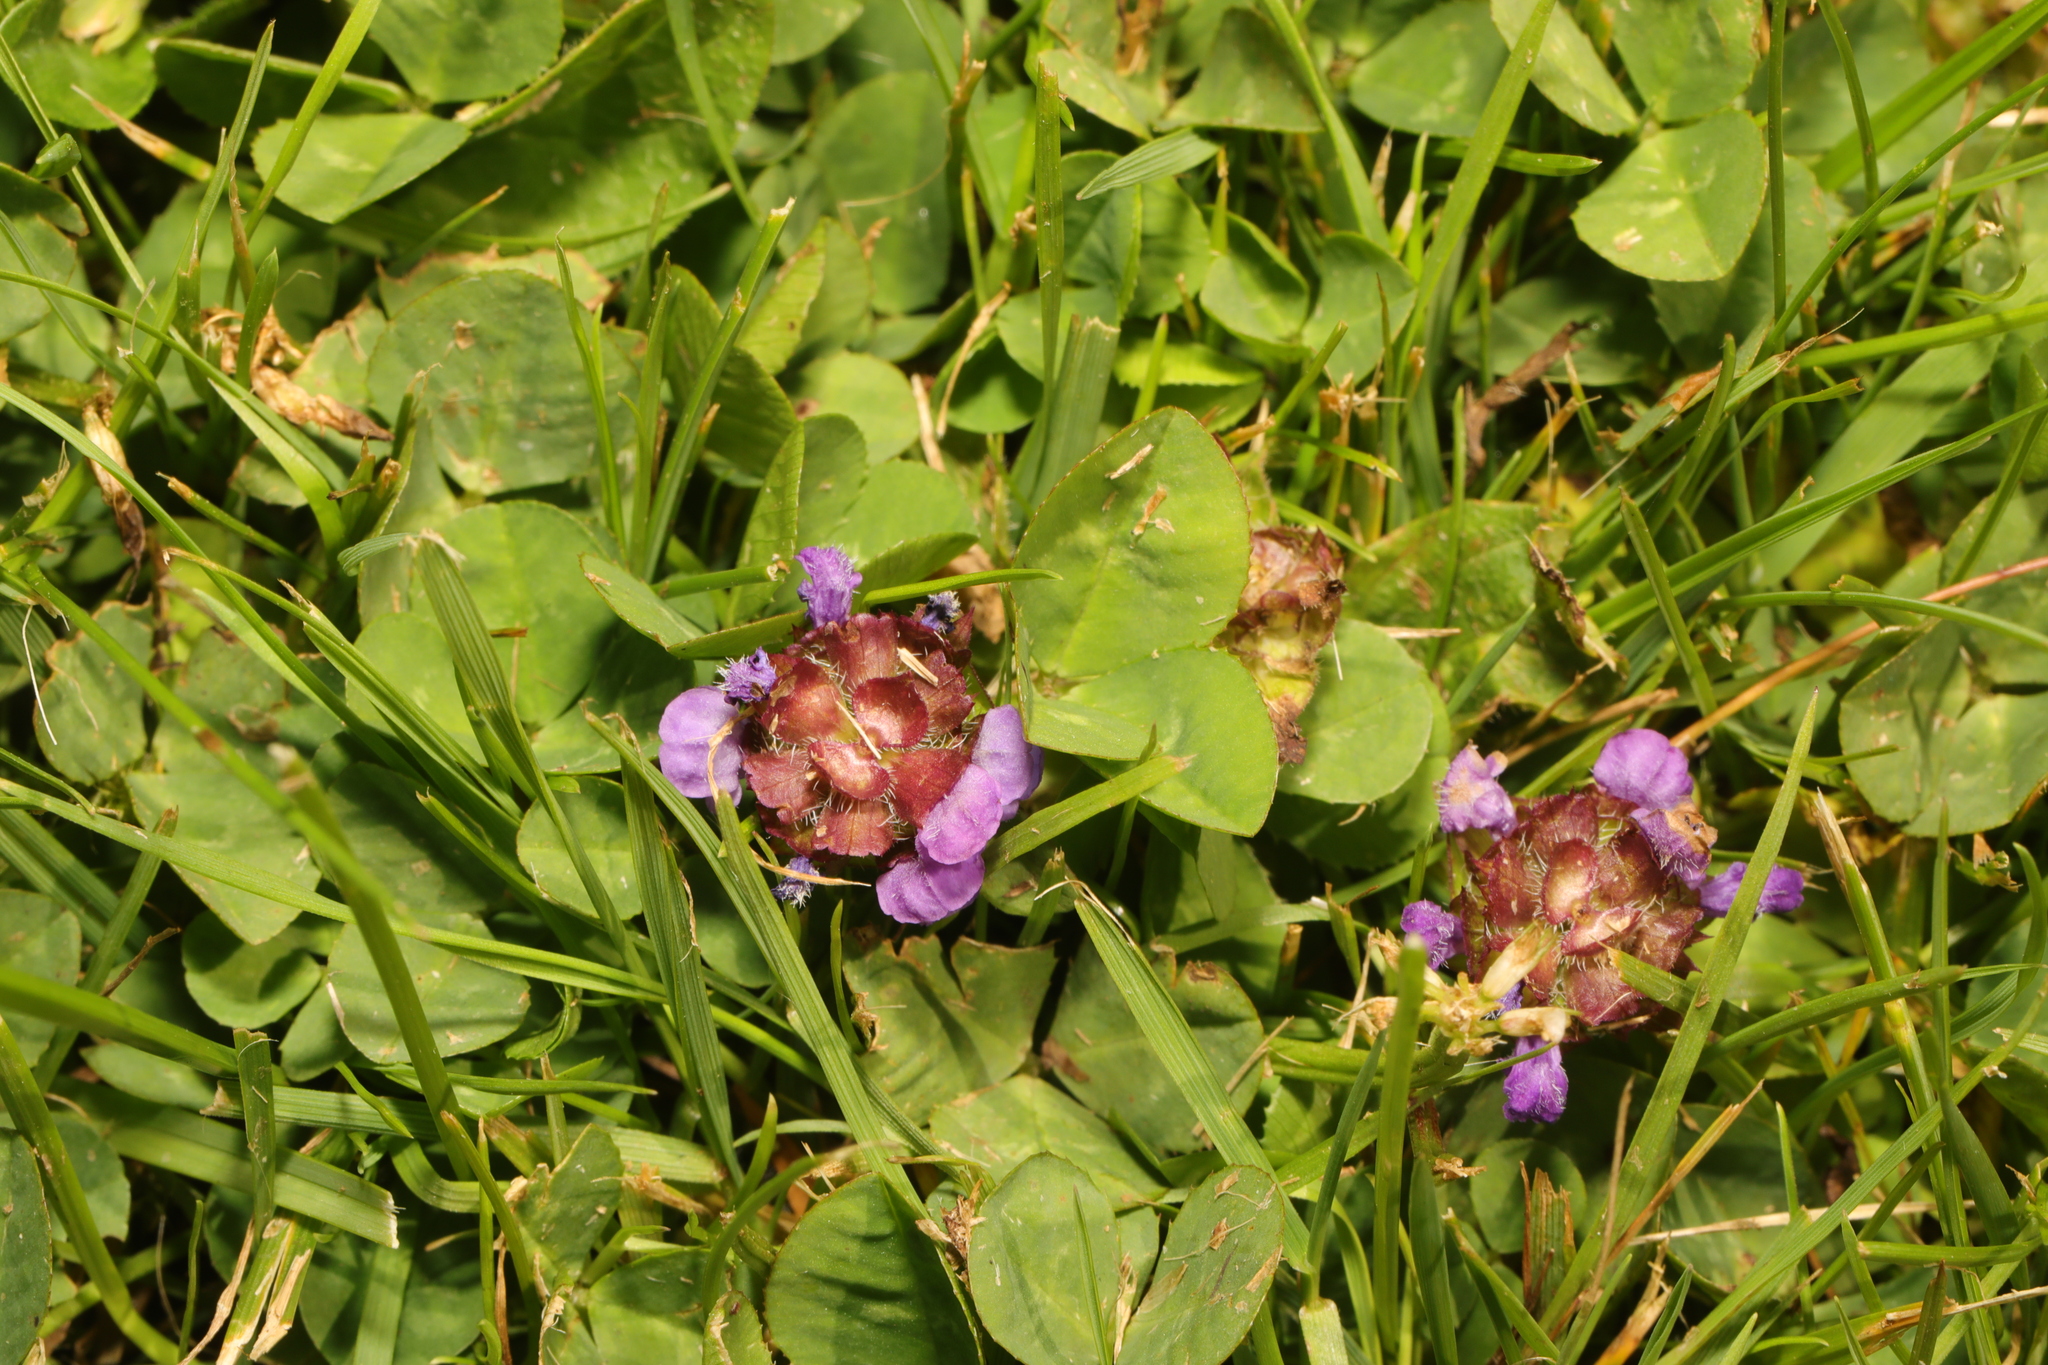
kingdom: Plantae
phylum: Tracheophyta
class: Magnoliopsida
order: Lamiales
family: Lamiaceae
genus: Prunella
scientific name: Prunella vulgaris
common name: Heal-all
